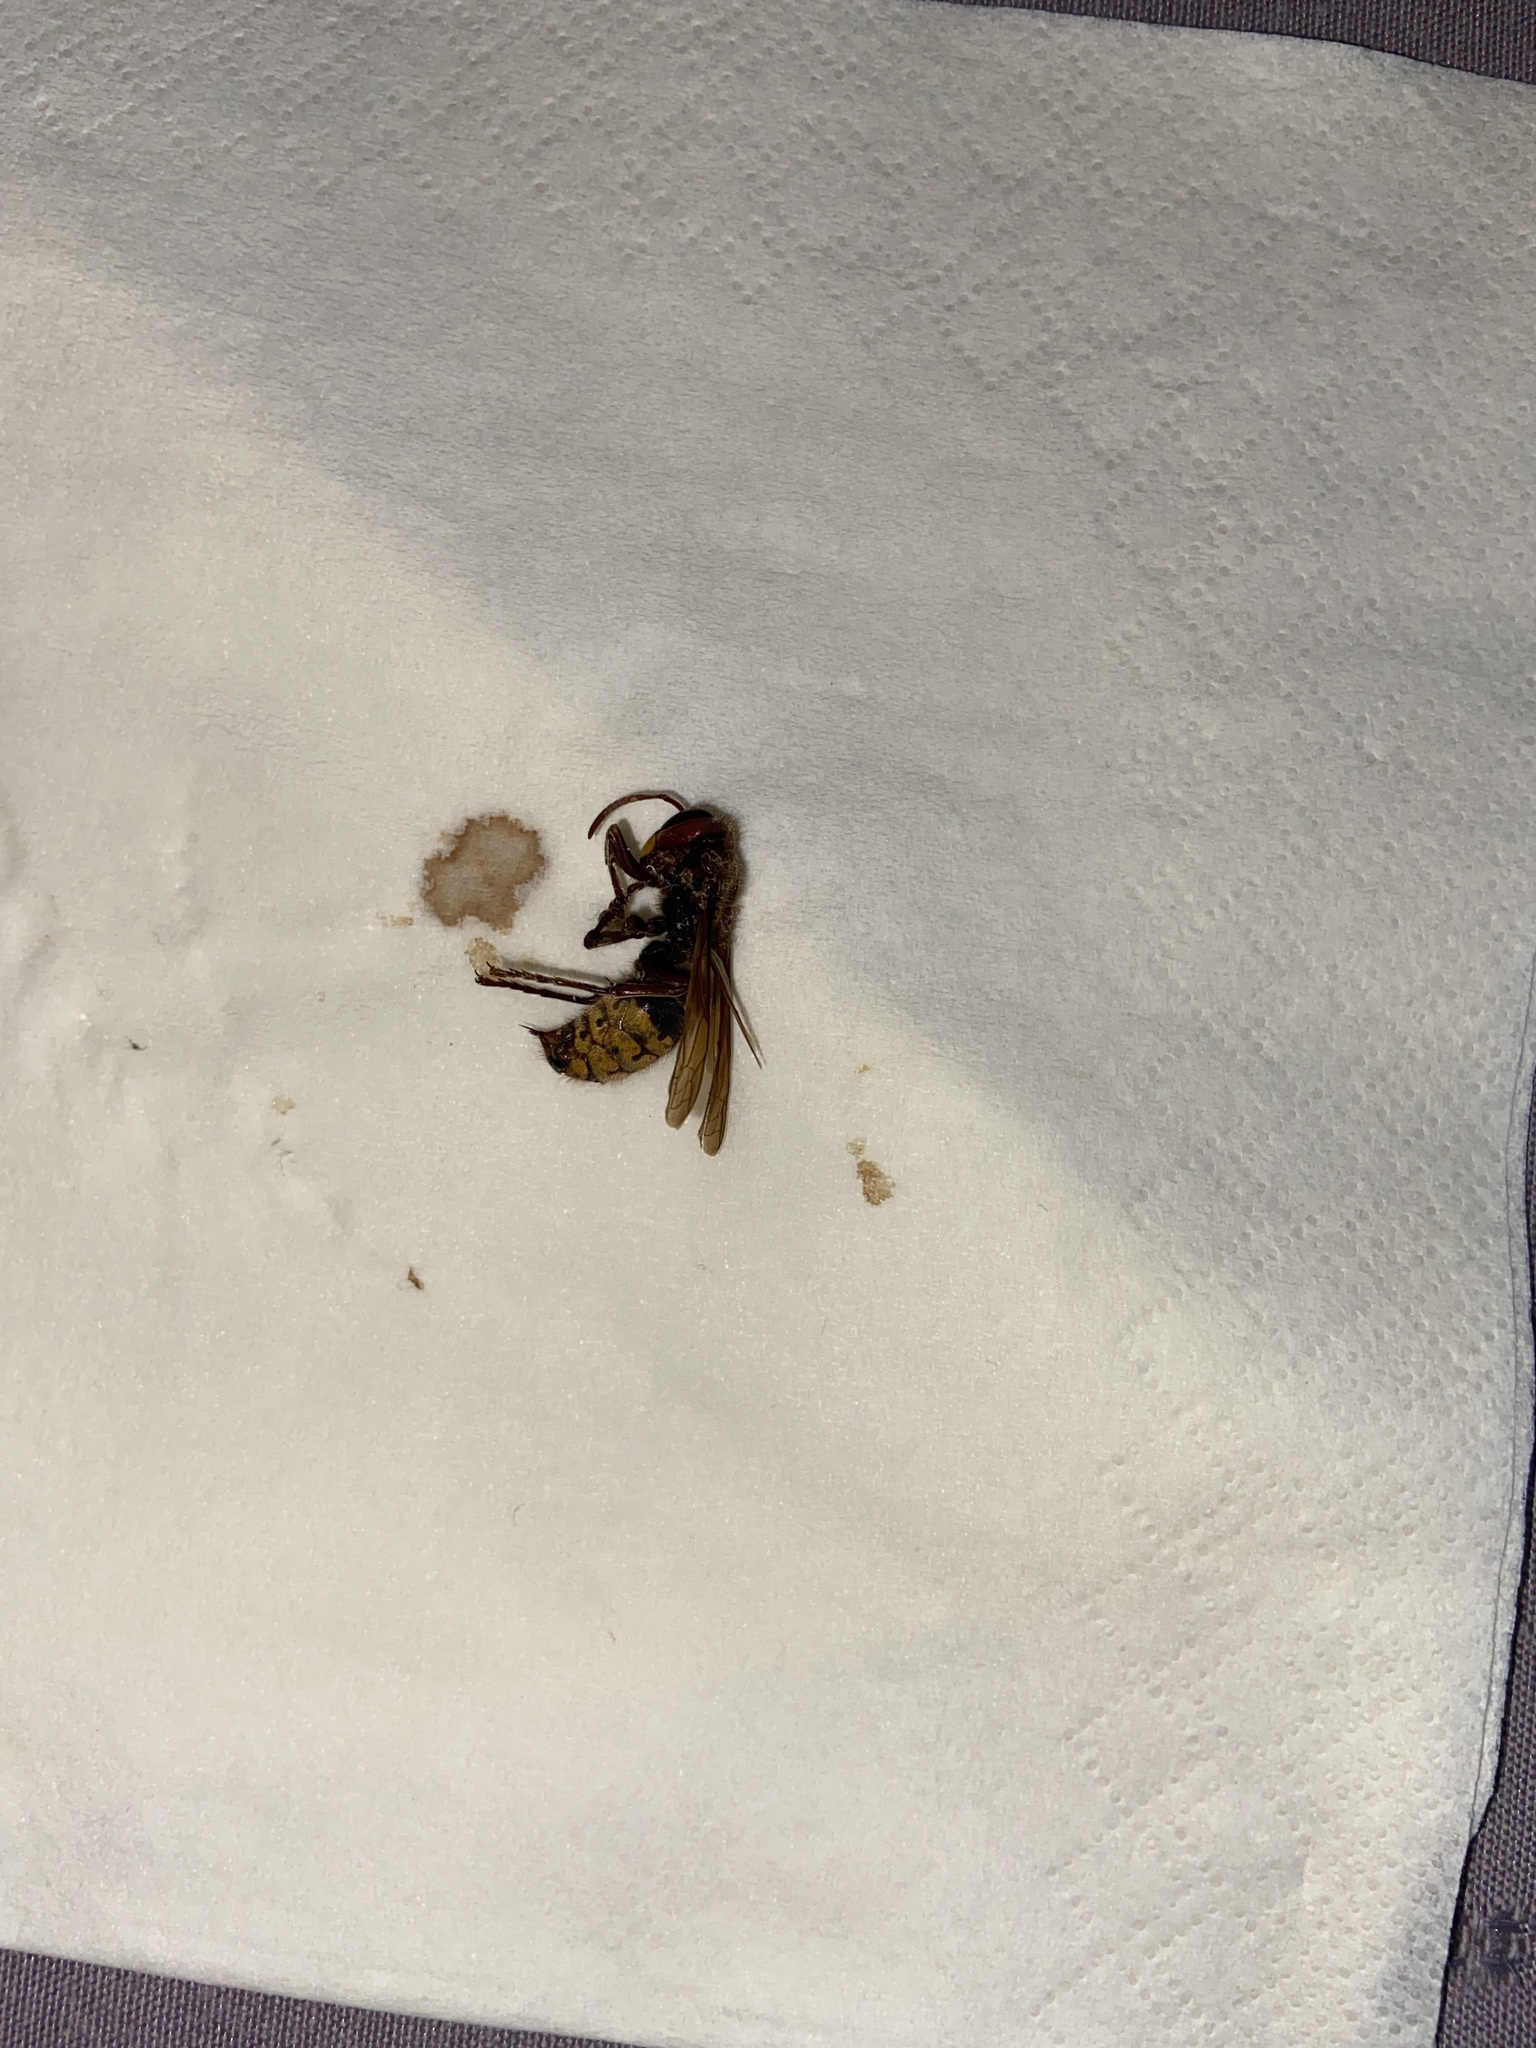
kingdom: Animalia
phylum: Arthropoda
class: Insecta
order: Hymenoptera
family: Vespidae
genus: Vespa
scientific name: Vespa crabro
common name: Hornet
